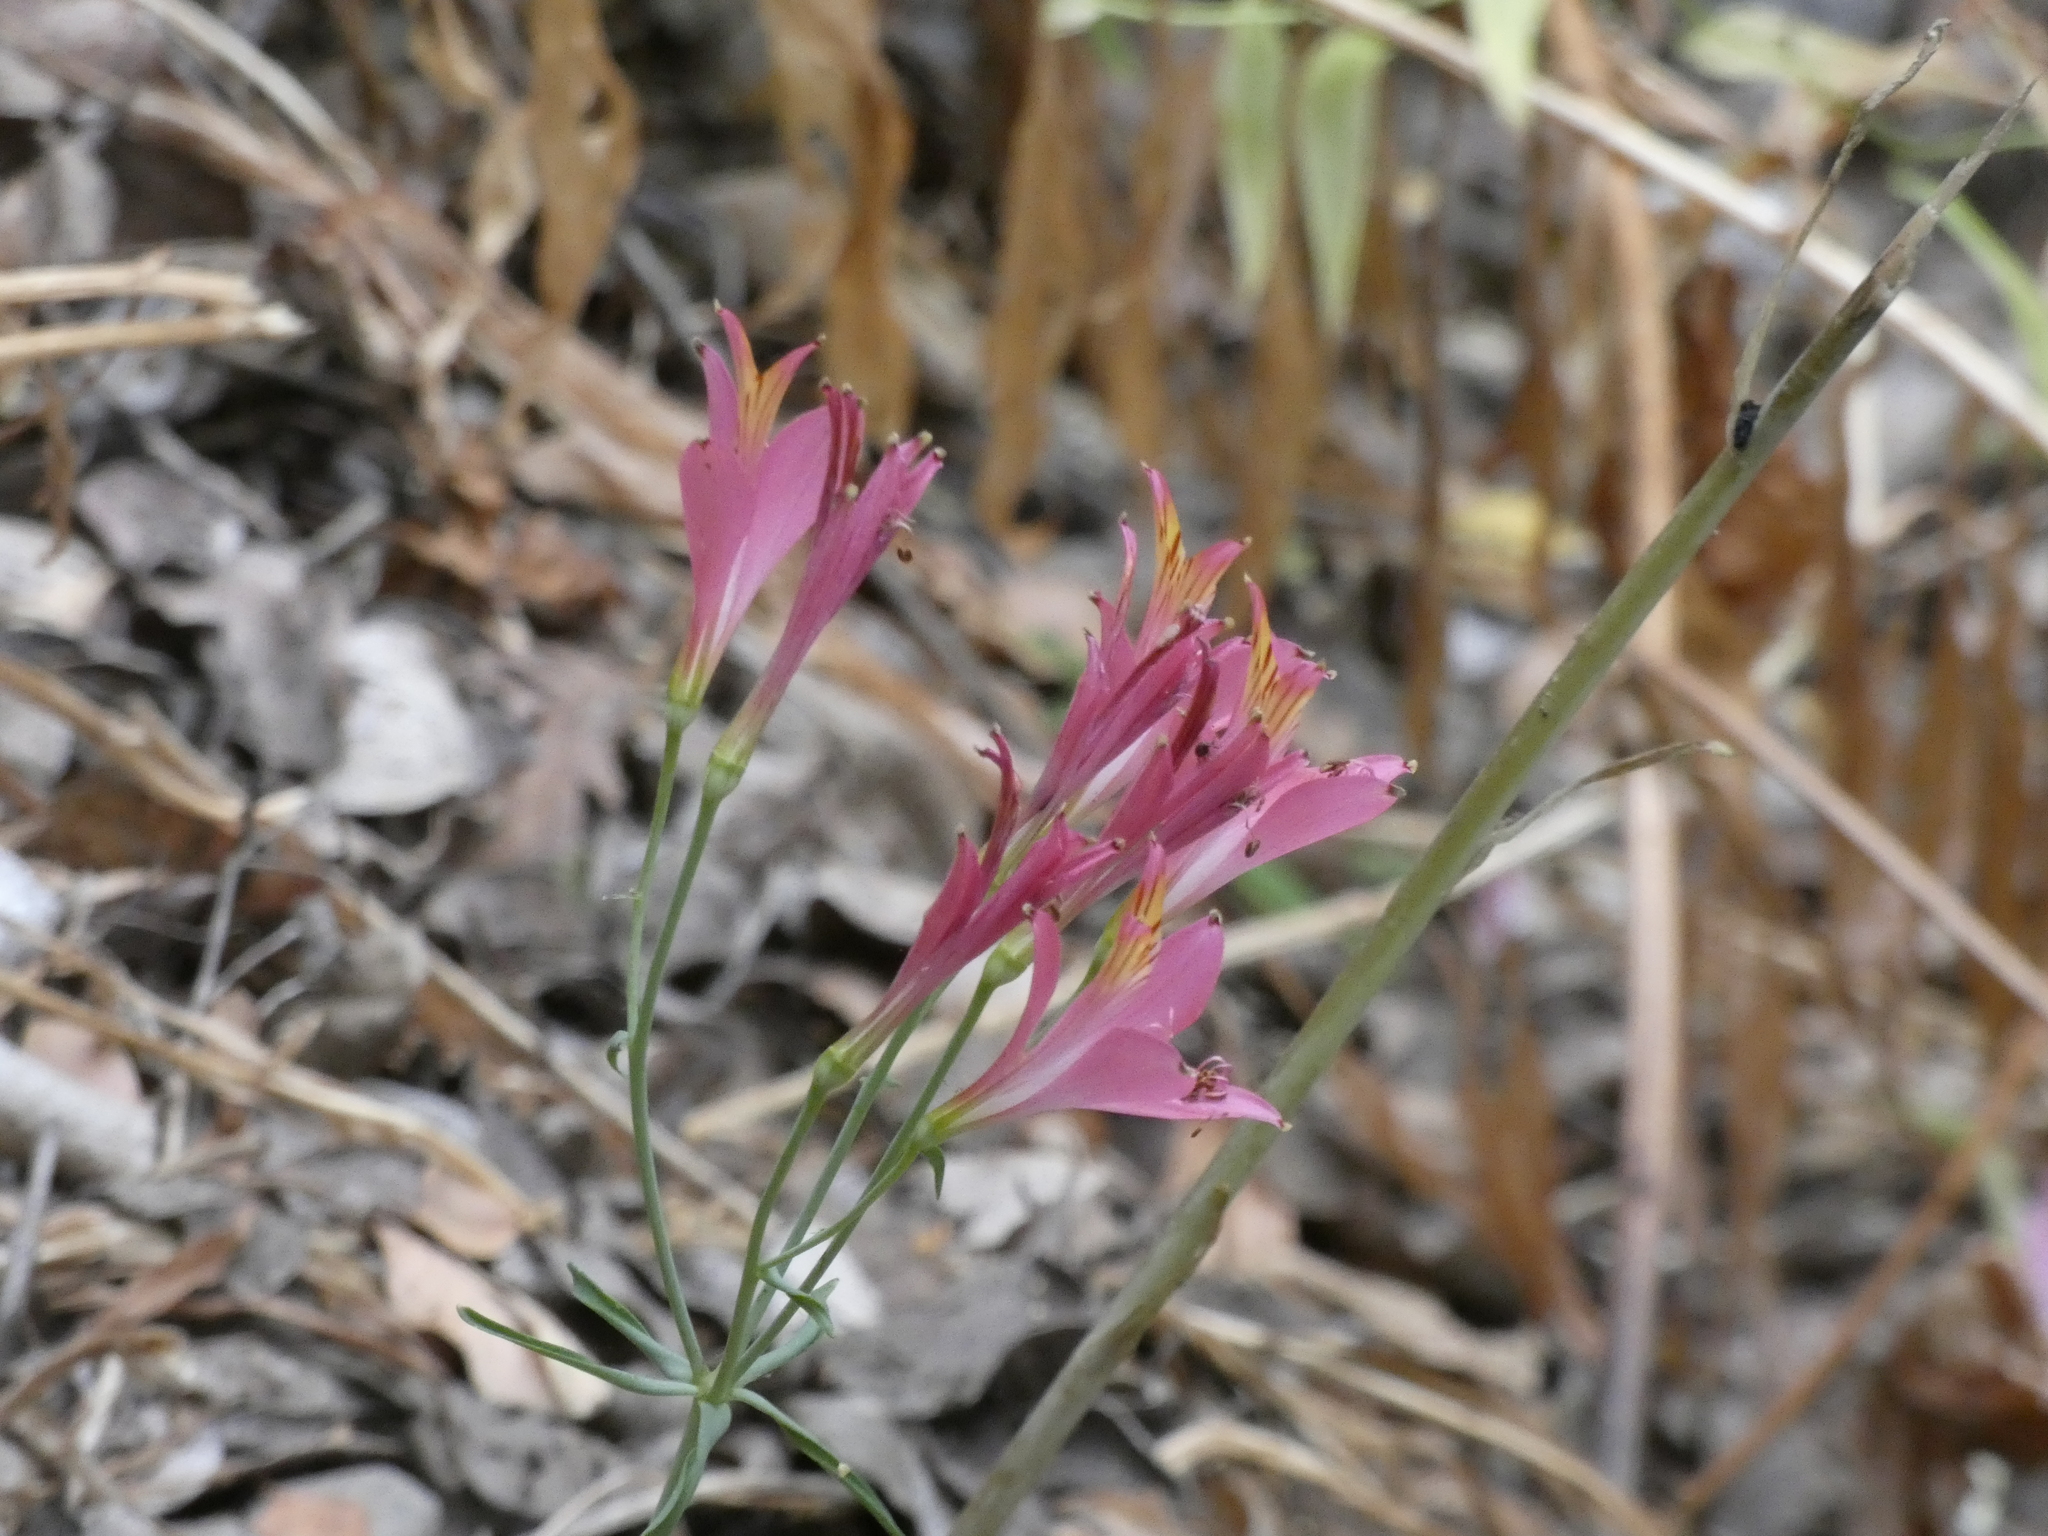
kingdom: Plantae
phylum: Tracheophyta
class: Liliopsida
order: Liliales
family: Alstroemeriaceae
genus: Alstroemeria
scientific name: Alstroemeria ligtu
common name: St. martin's-flower
